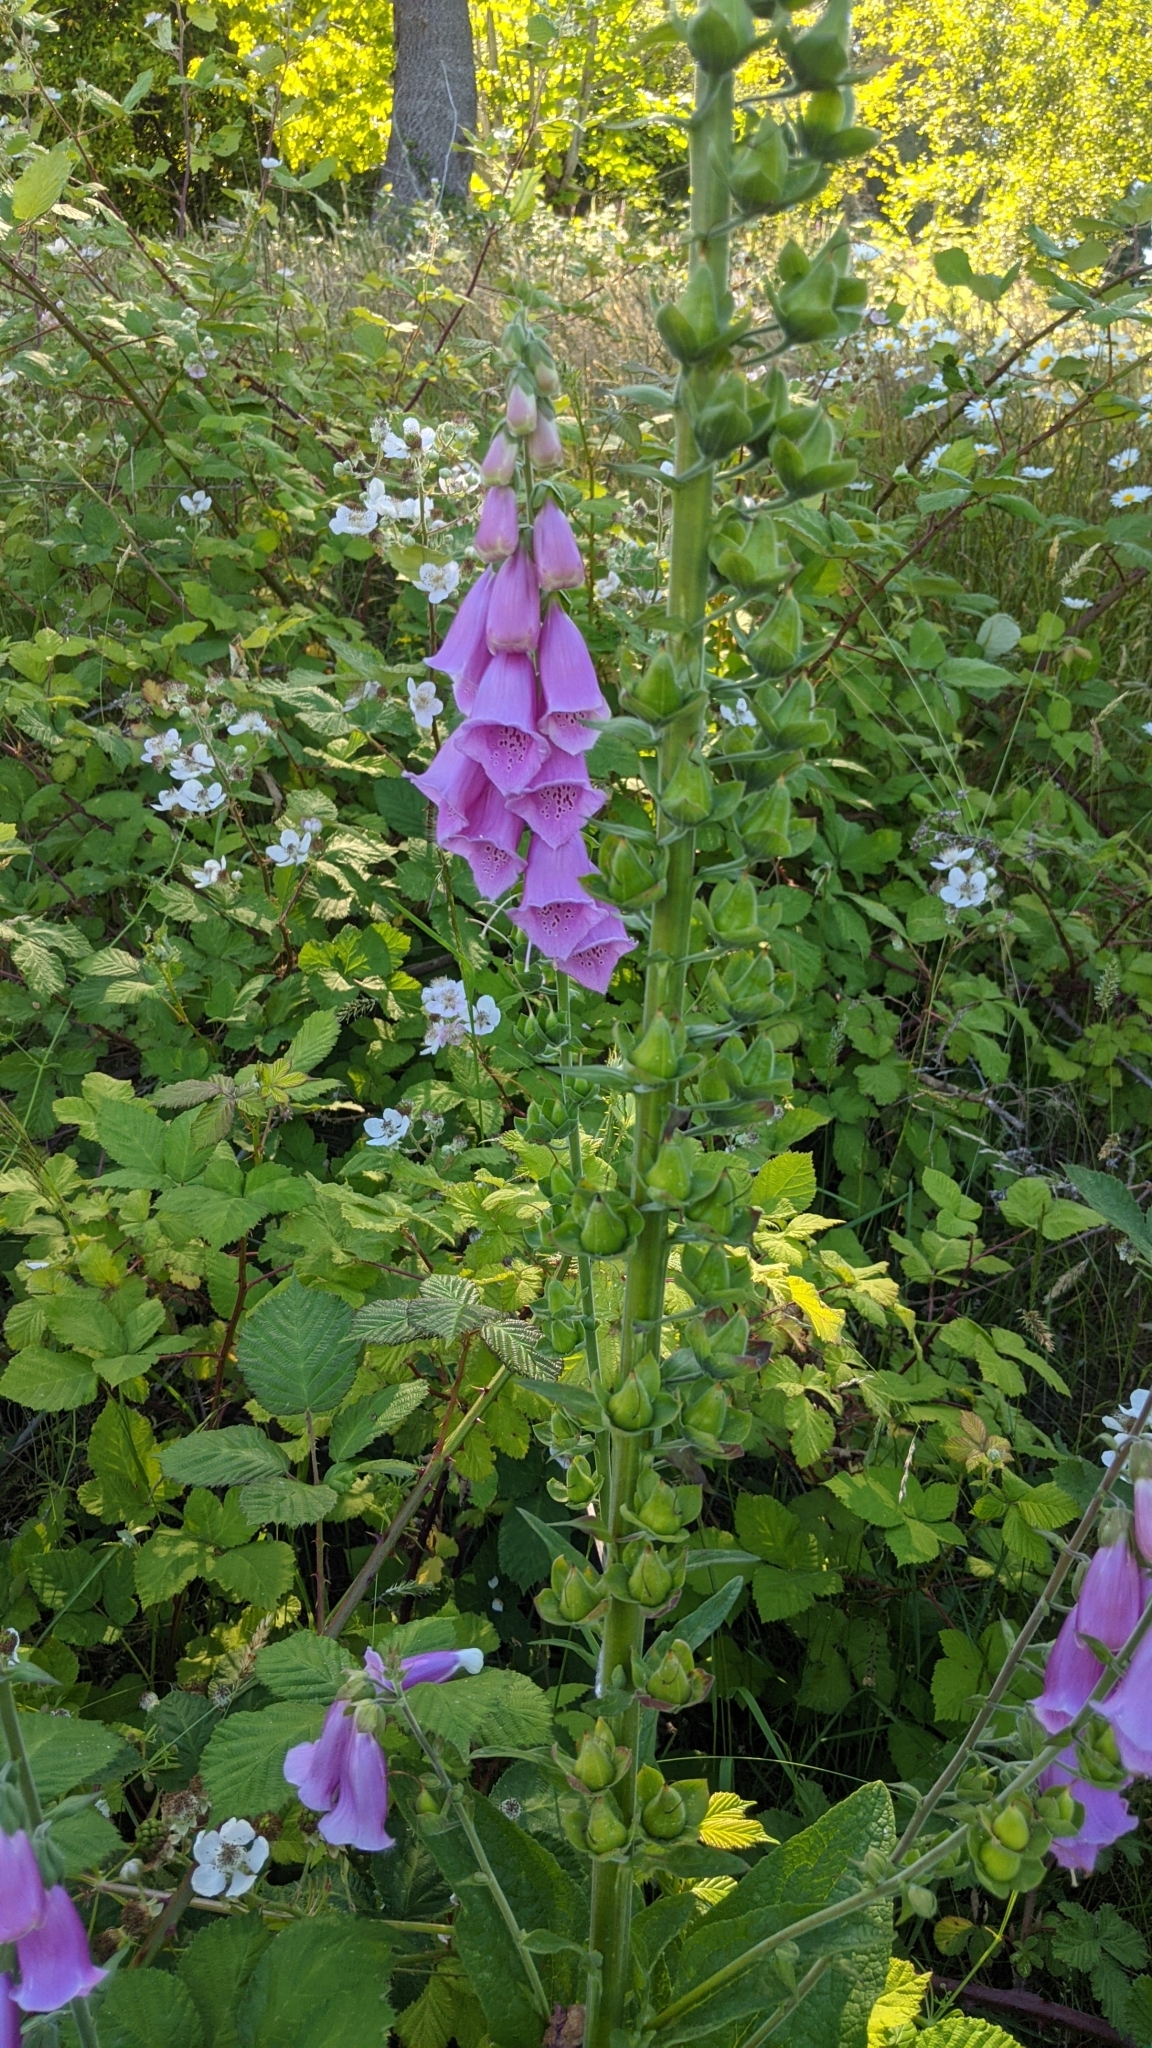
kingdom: Plantae
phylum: Tracheophyta
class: Magnoliopsida
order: Lamiales
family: Plantaginaceae
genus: Digitalis
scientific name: Digitalis purpurea
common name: Foxglove
